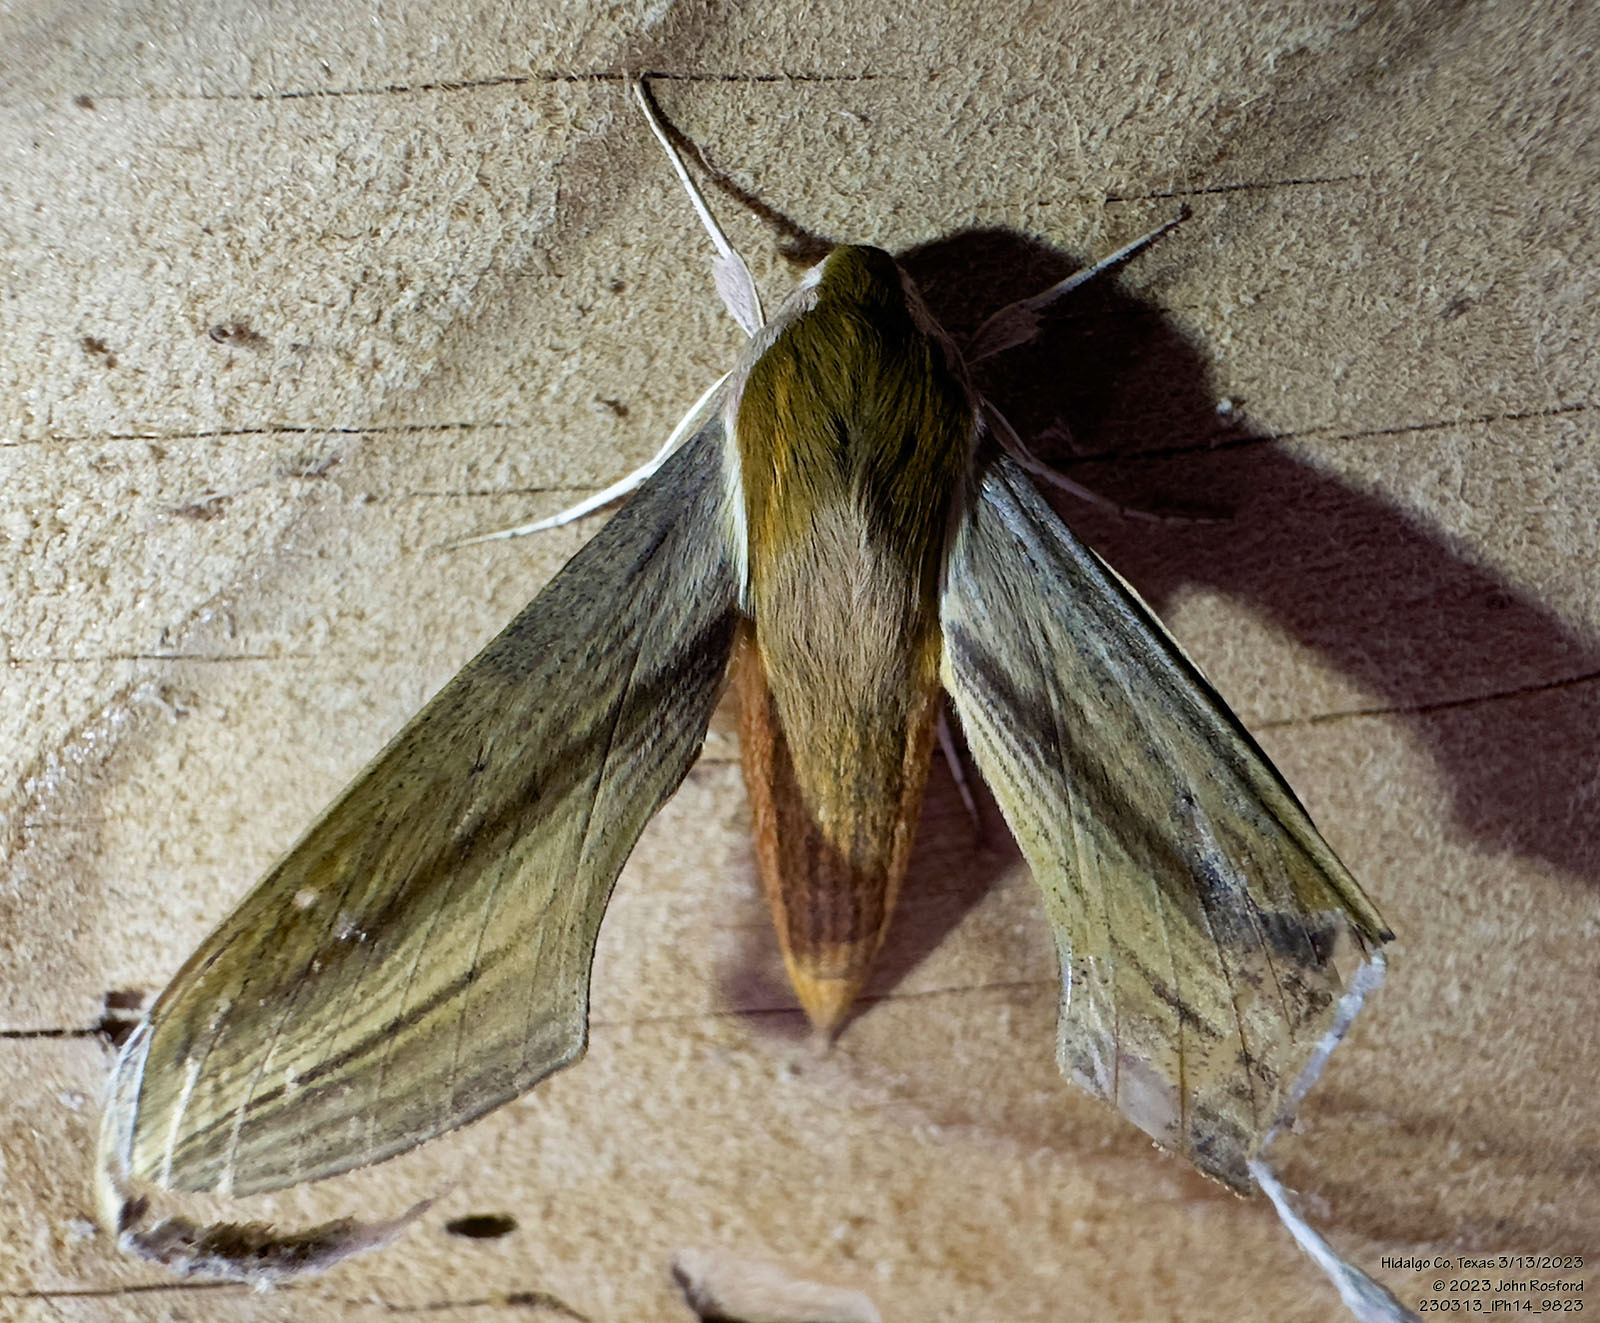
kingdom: Animalia
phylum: Arthropoda
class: Insecta
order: Lepidoptera
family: Sphingidae
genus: Xylophanes
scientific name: Xylophanes tersa
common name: Tersa sphinx
